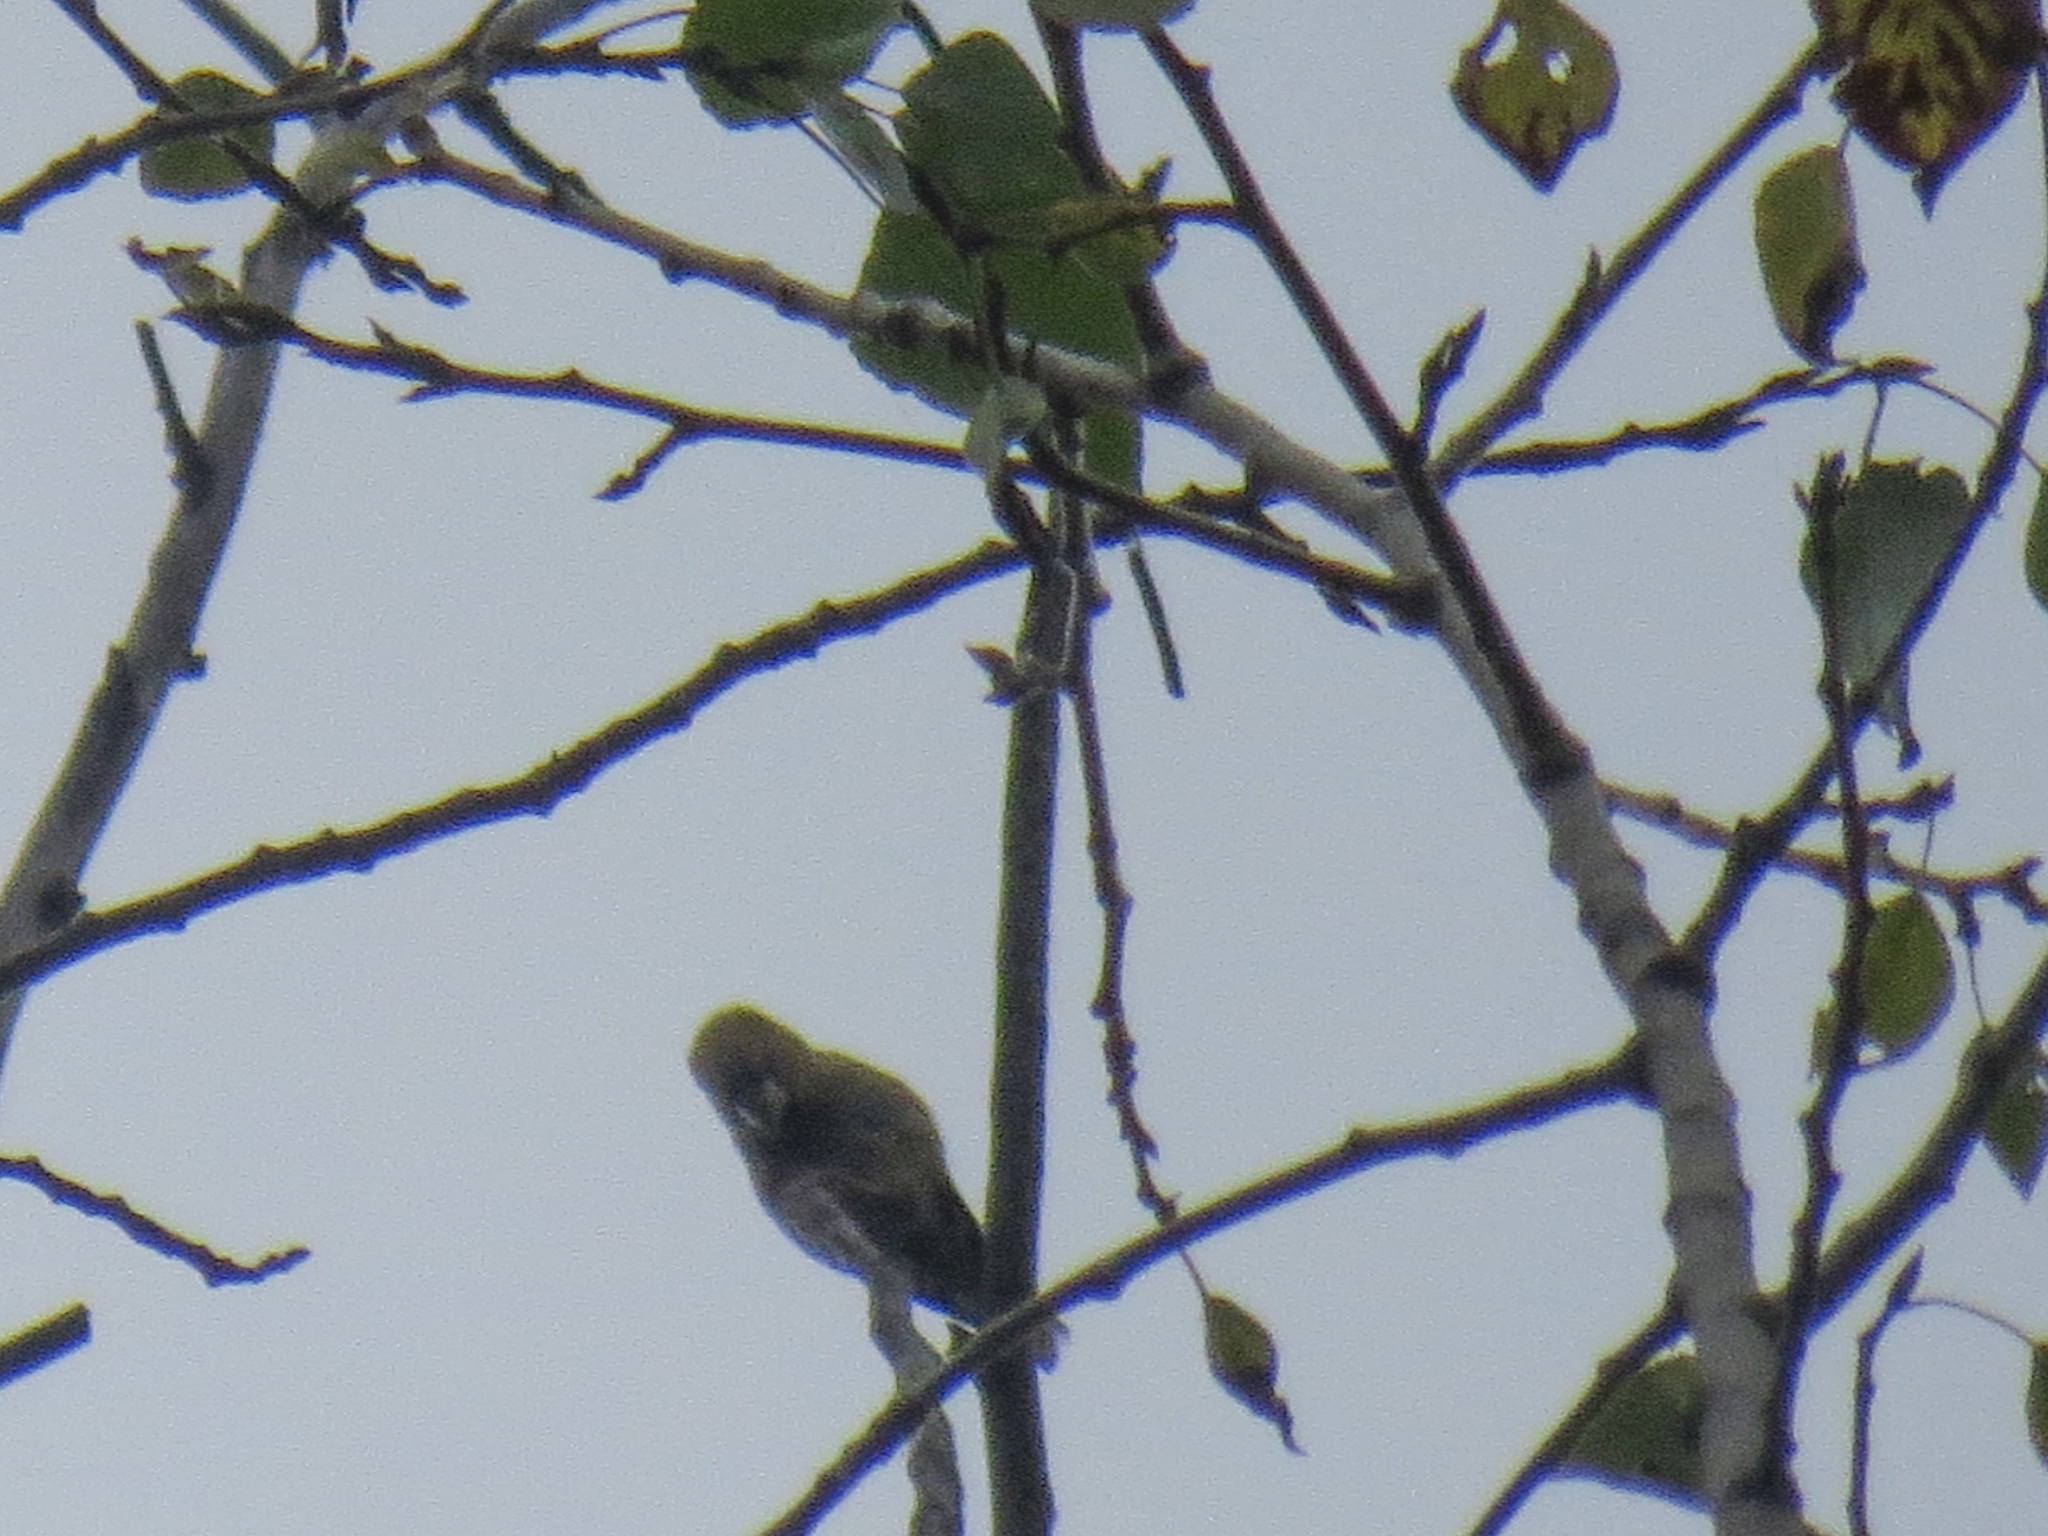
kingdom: Animalia
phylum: Chordata
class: Aves
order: Passeriformes
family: Fringillidae
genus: Coccothraustes
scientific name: Coccothraustes coccothraustes
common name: Hawfinch
